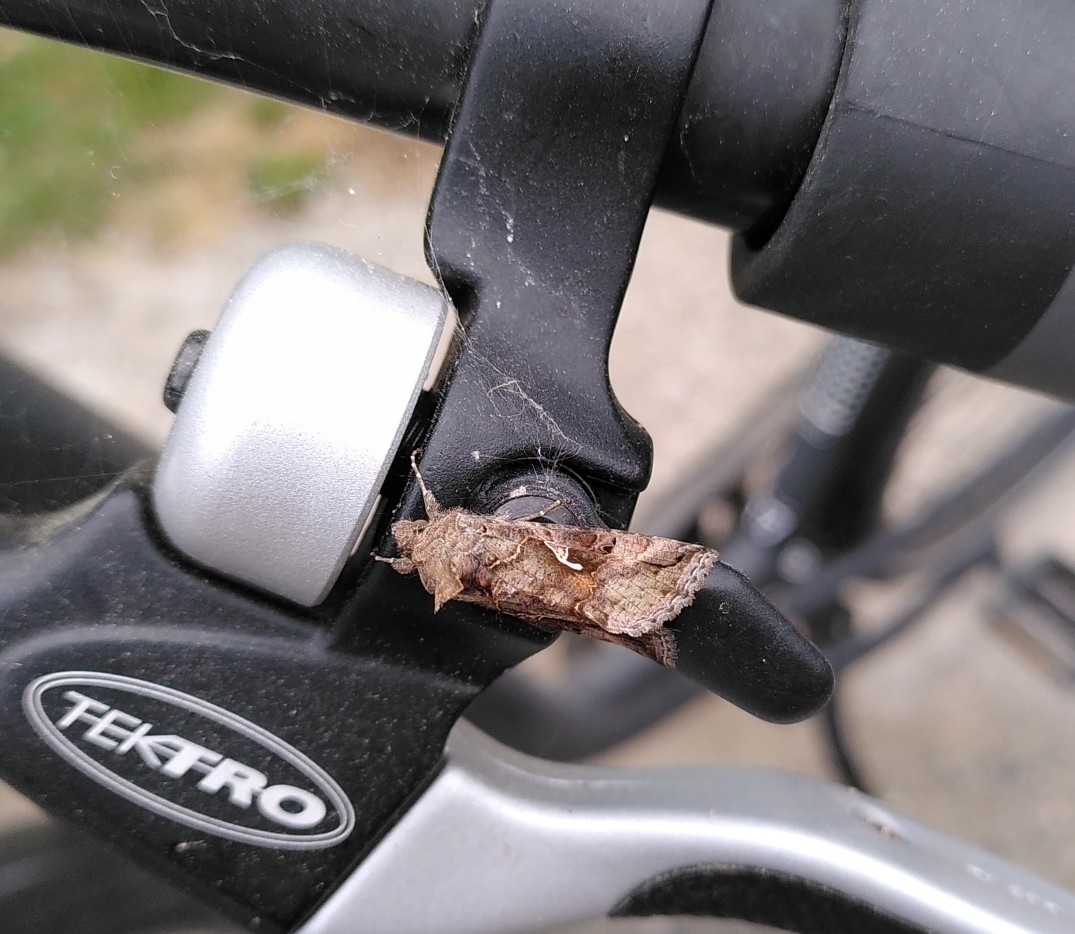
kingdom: Animalia
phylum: Arthropoda
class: Insecta
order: Lepidoptera
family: Noctuidae
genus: Autographa
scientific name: Autographa gamma
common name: Silver y
